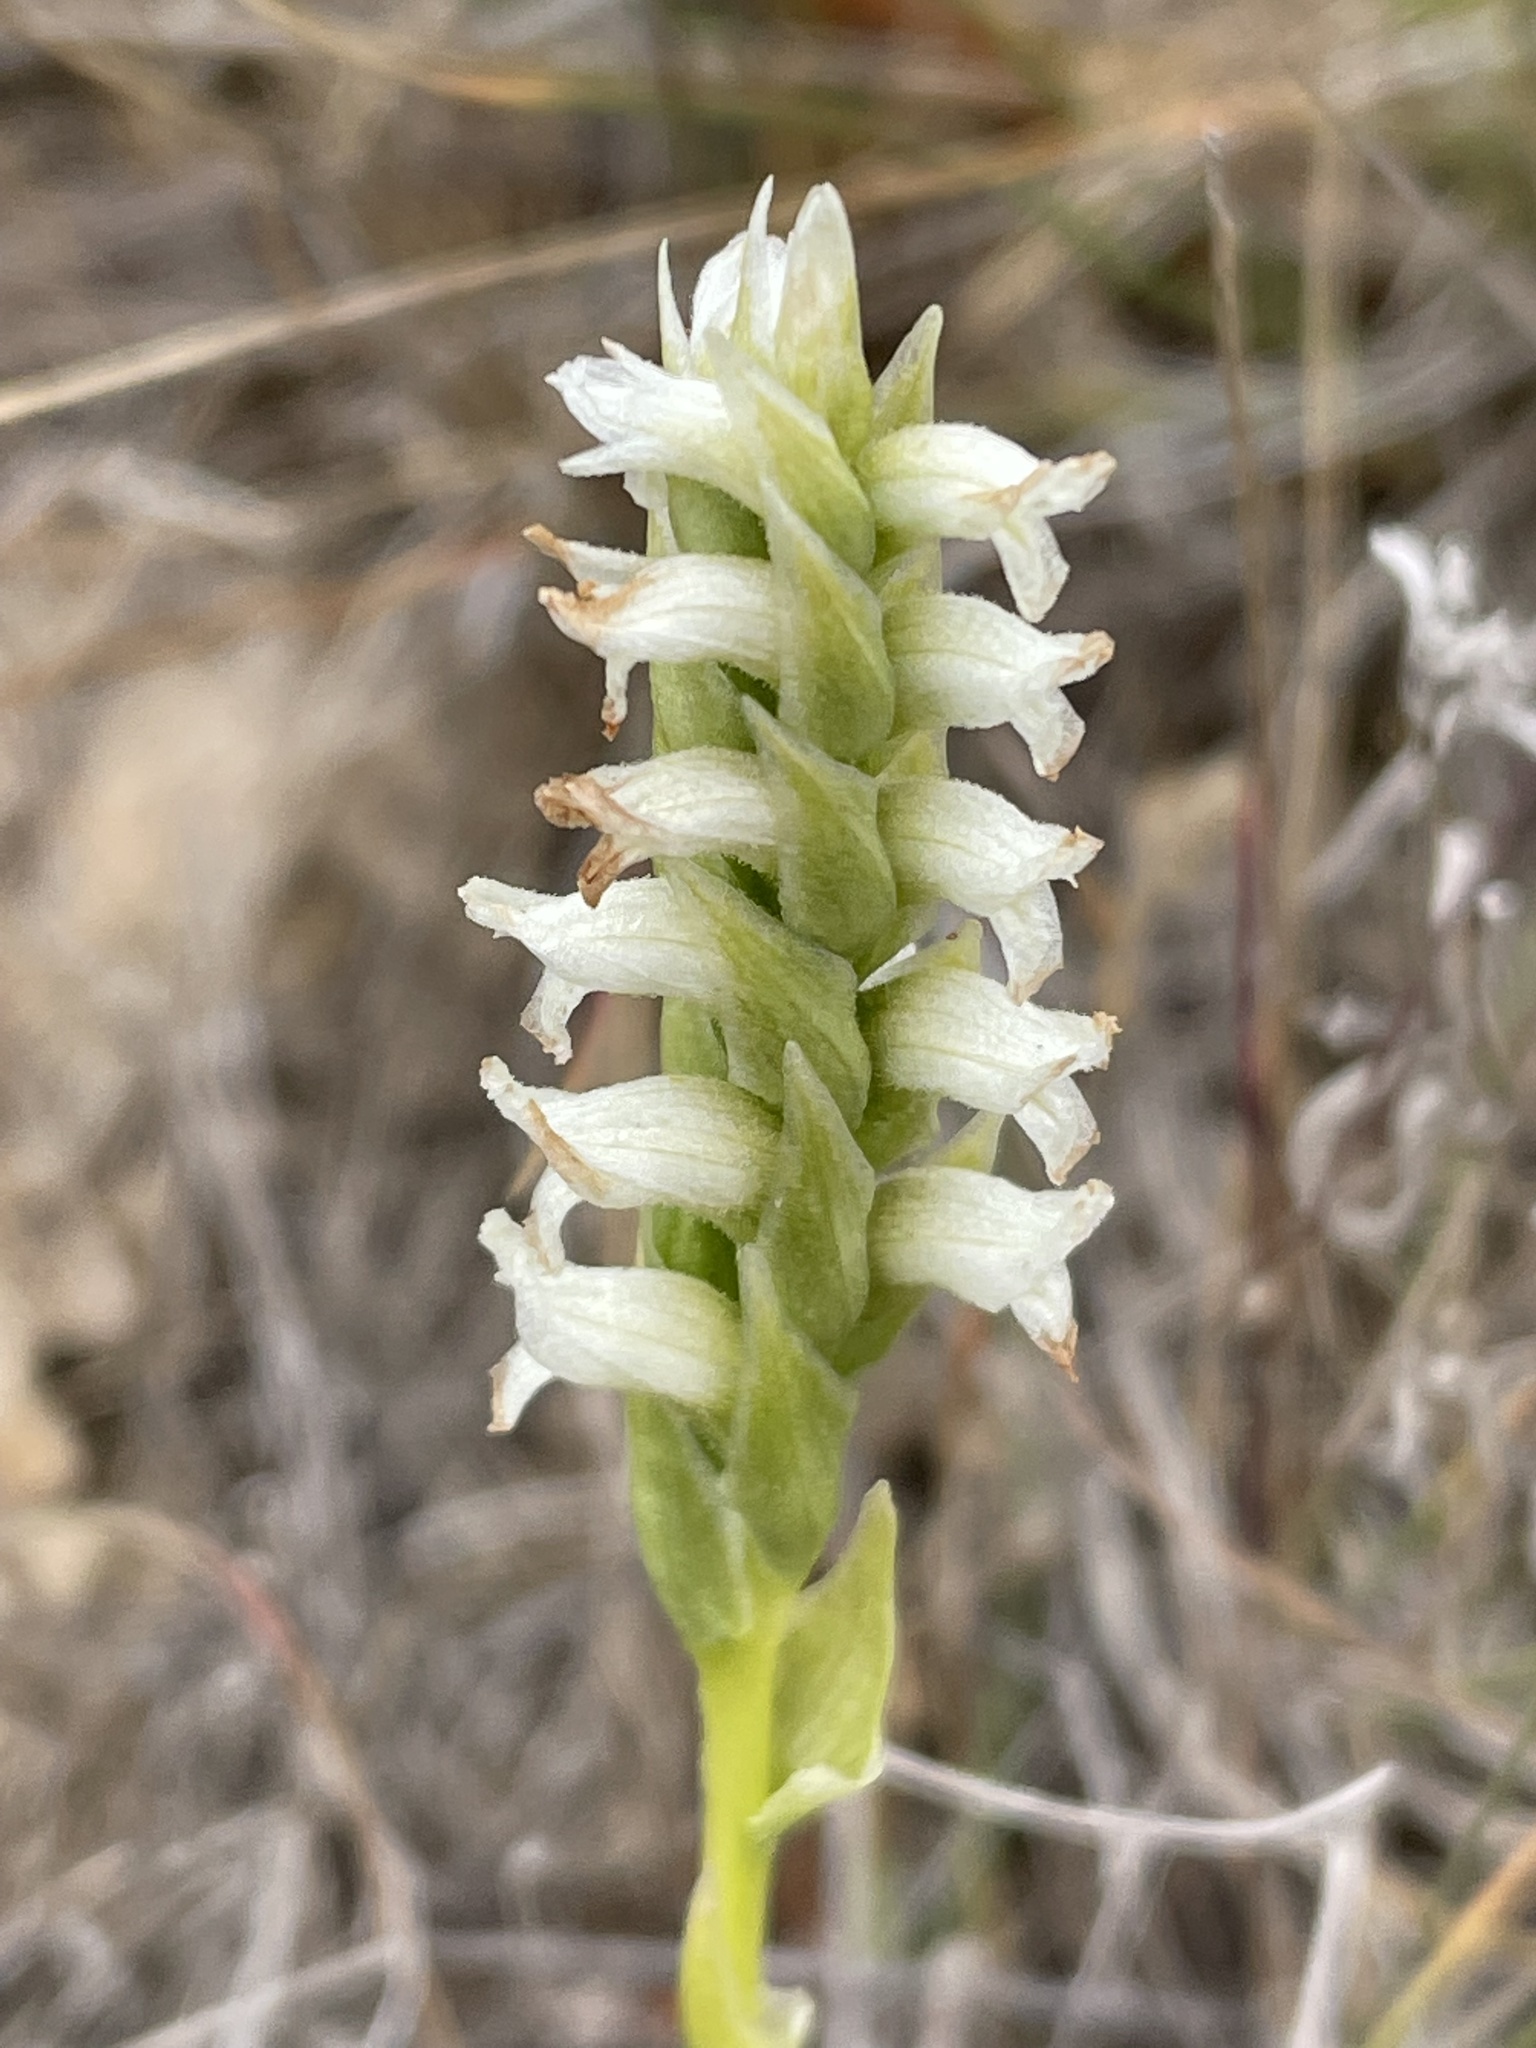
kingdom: Plantae
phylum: Tracheophyta
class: Liliopsida
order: Asparagales
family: Orchidaceae
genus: Spiranthes
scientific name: Spiranthes romanzoffiana
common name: Irish lady's-tresses
